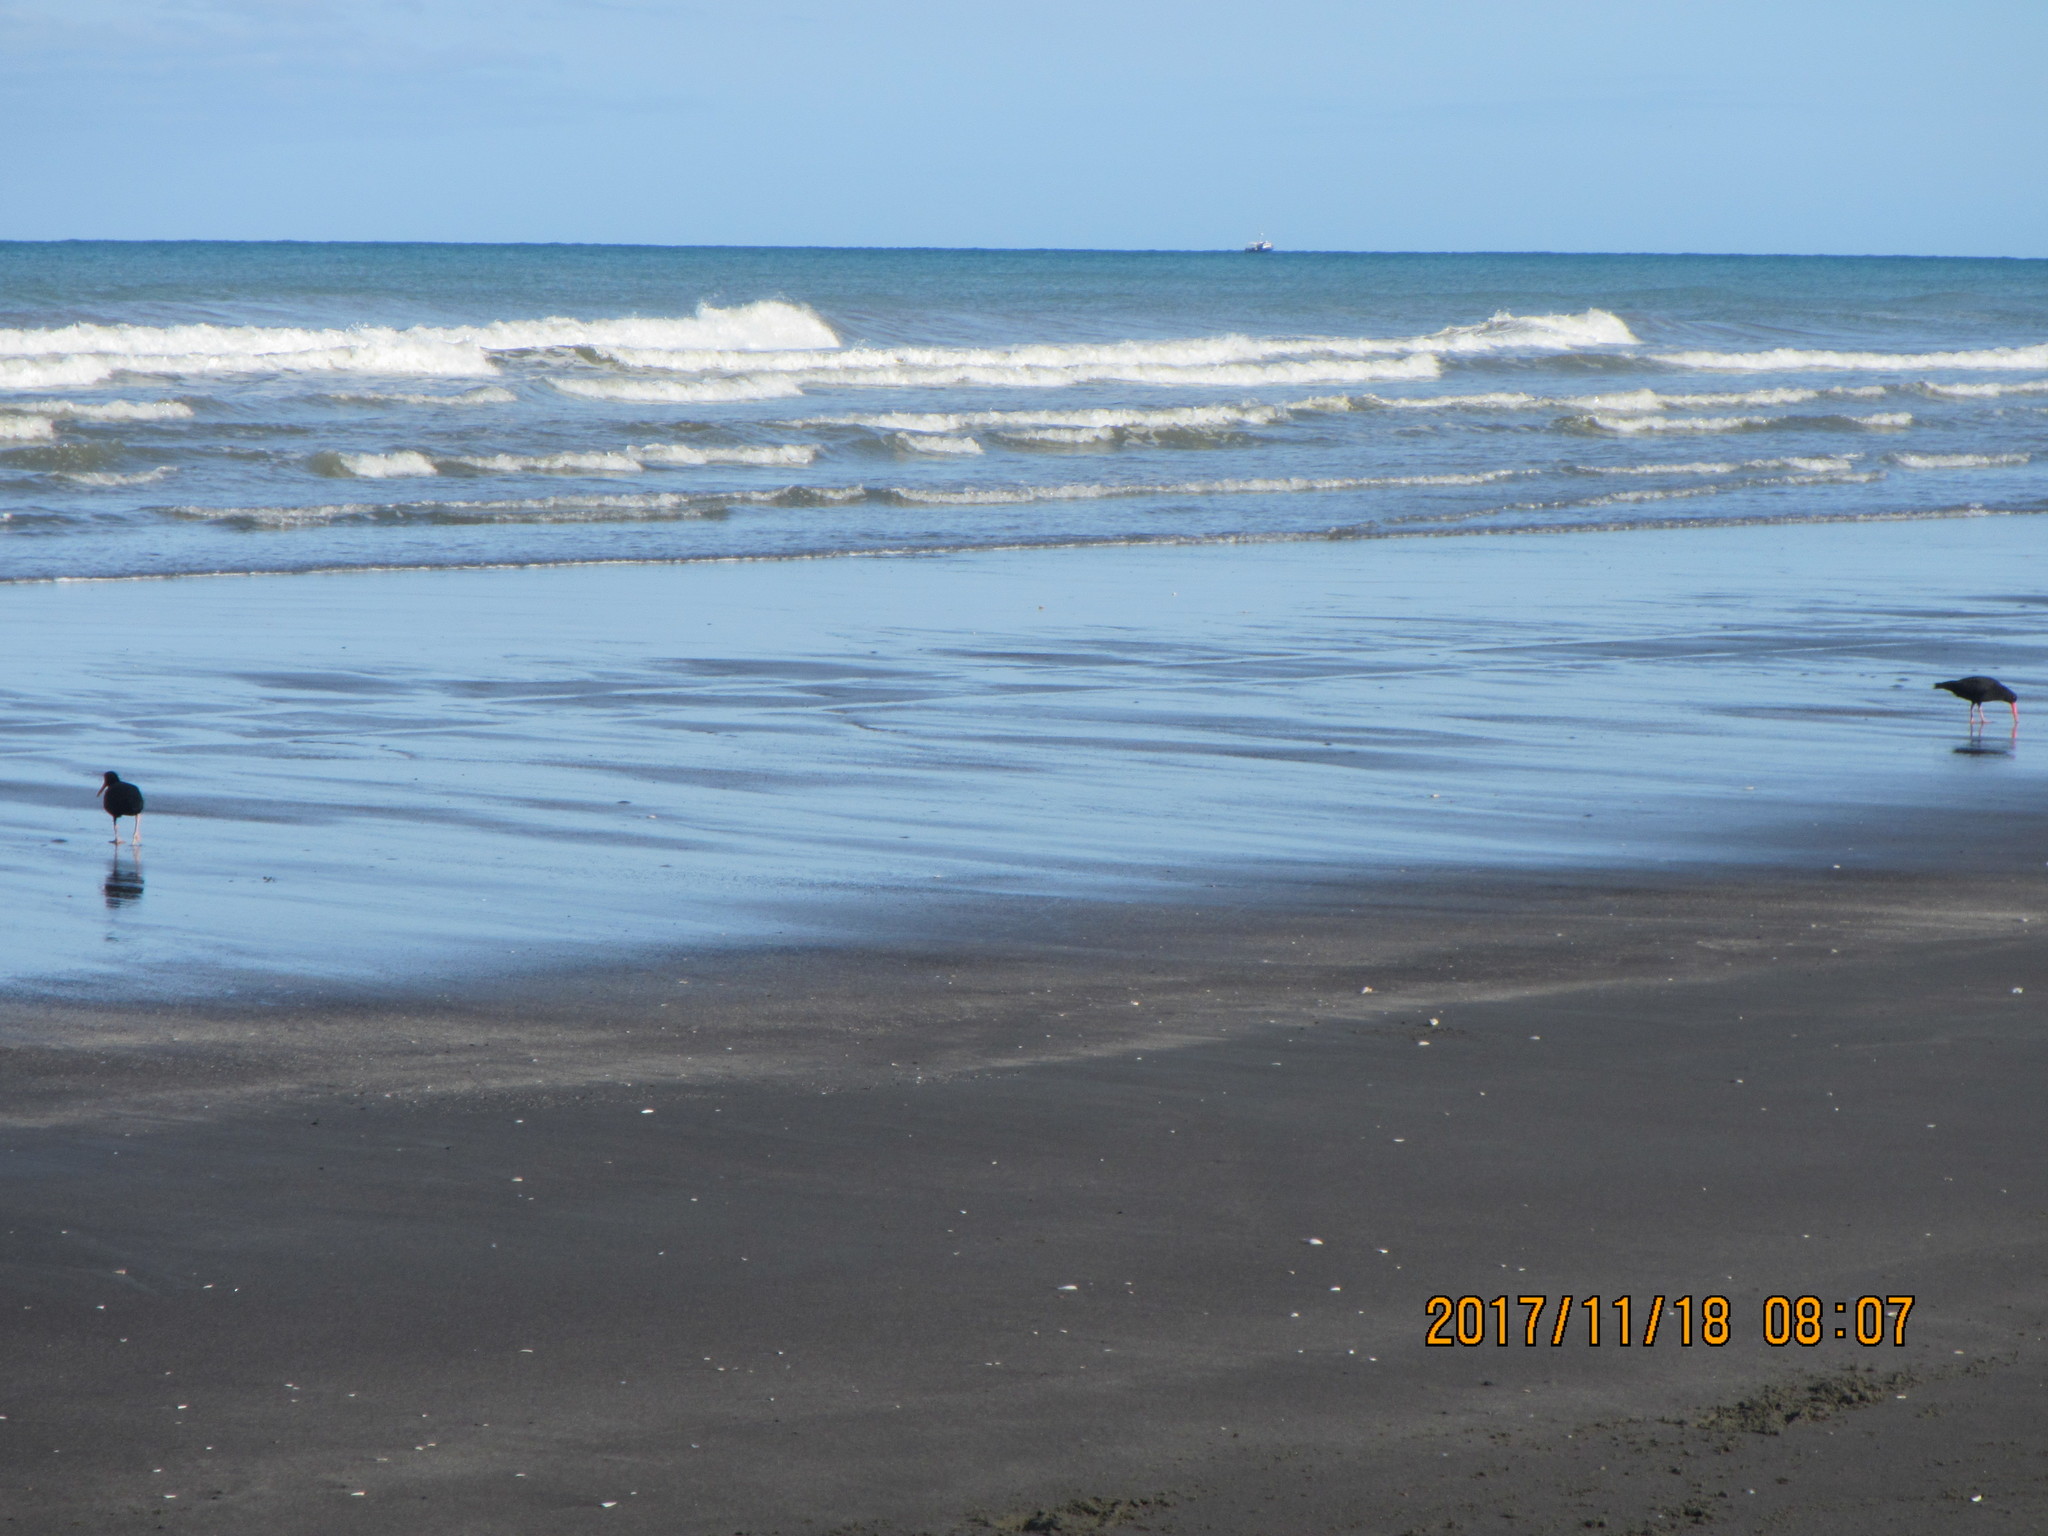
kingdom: Animalia
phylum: Chordata
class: Aves
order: Charadriiformes
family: Haematopodidae
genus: Haematopus
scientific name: Haematopus unicolor
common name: Variable oystercatcher
